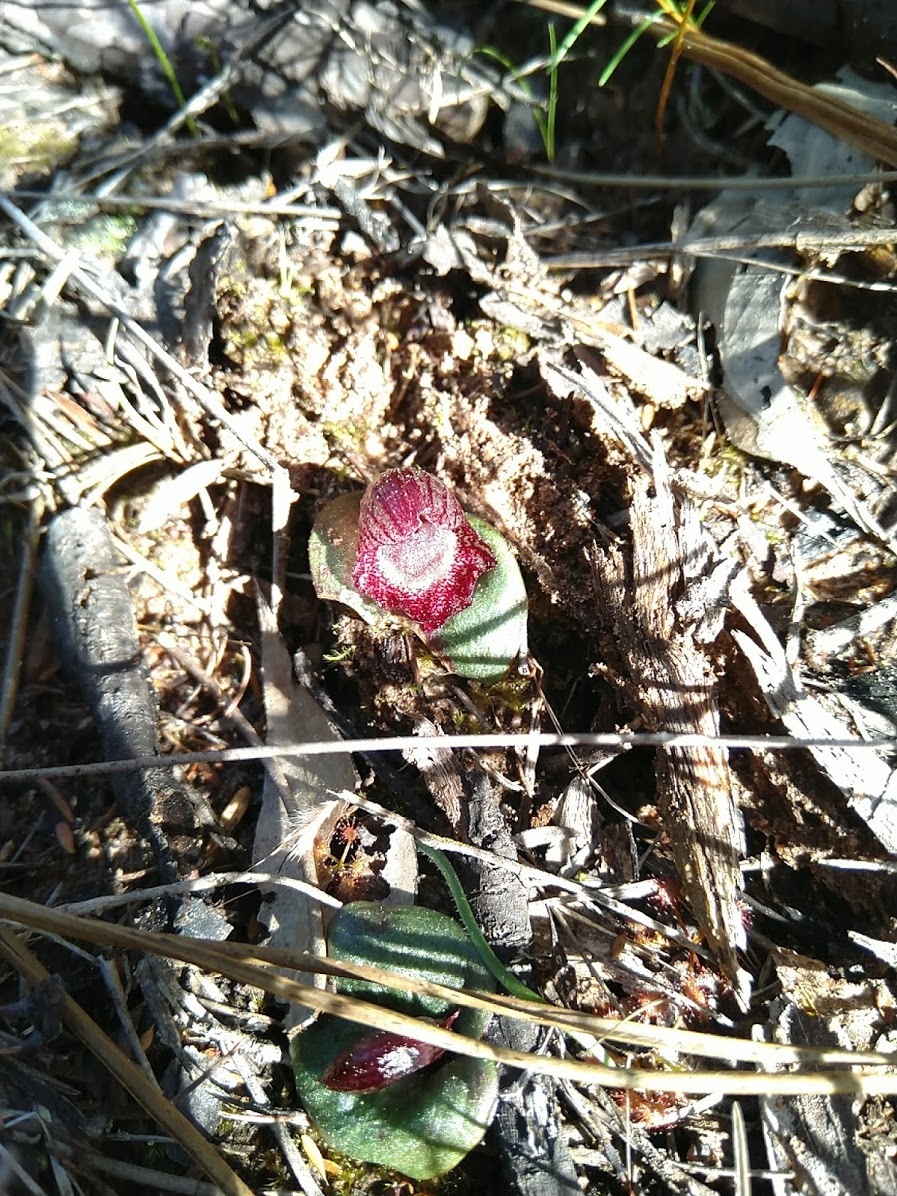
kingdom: Plantae
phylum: Tracheophyta
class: Liliopsida
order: Asparagales
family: Orchidaceae
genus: Corybas
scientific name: Corybas undulatus
